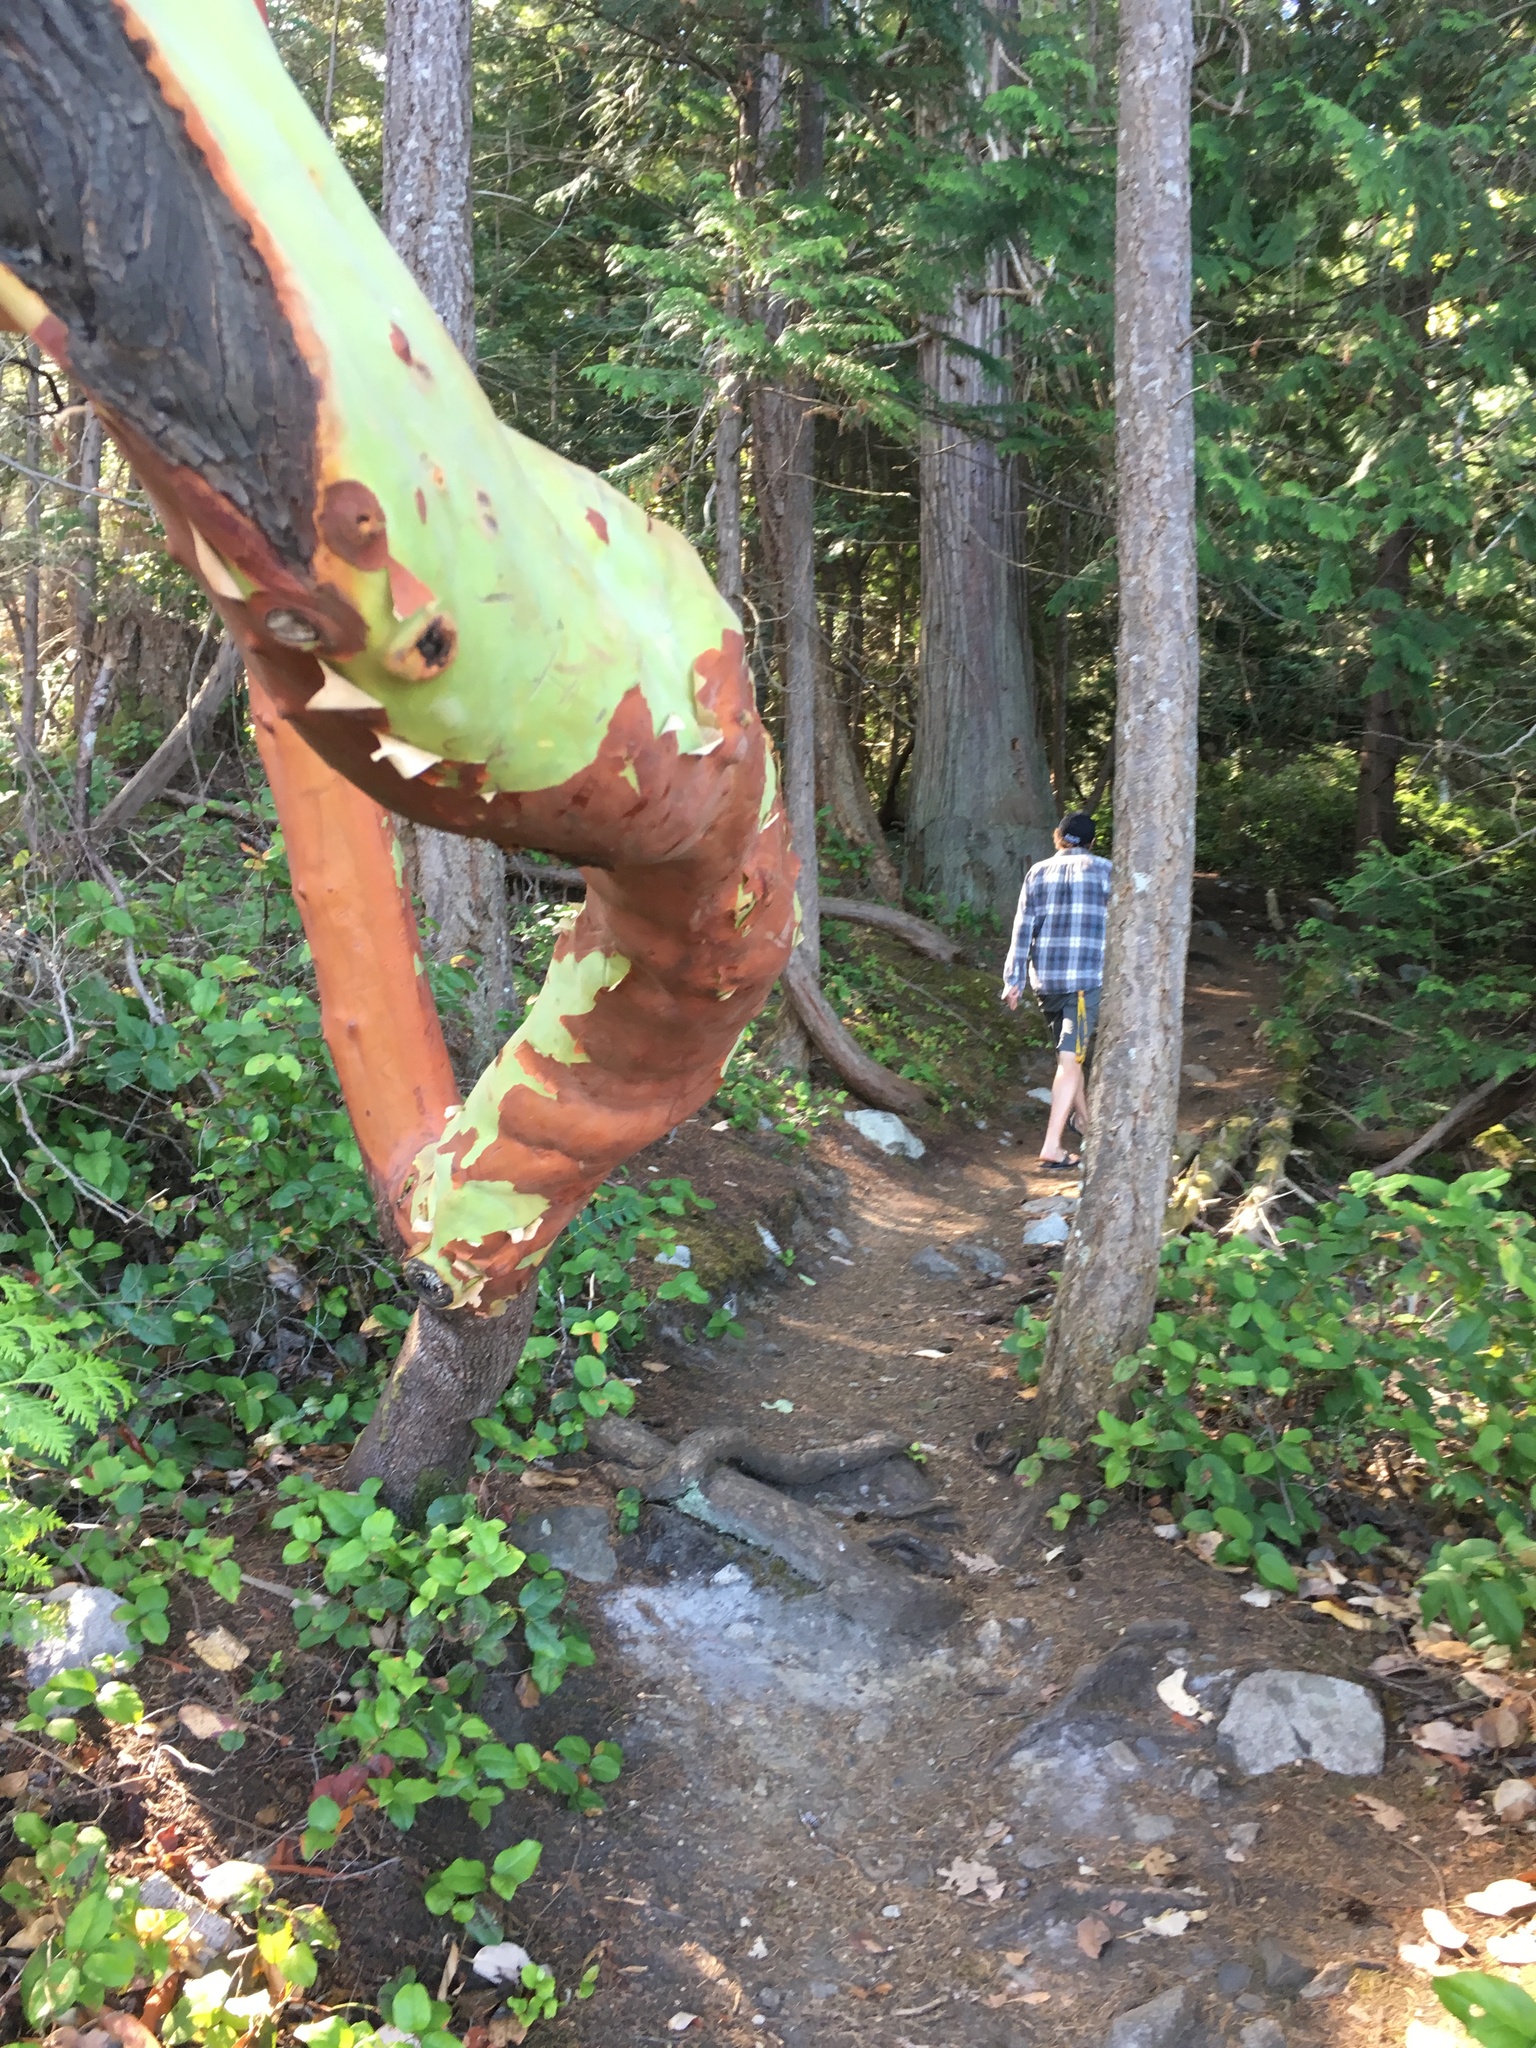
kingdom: Plantae
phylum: Tracheophyta
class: Magnoliopsida
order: Ericales
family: Ericaceae
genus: Arbutus
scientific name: Arbutus menziesii
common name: Pacific madrone
